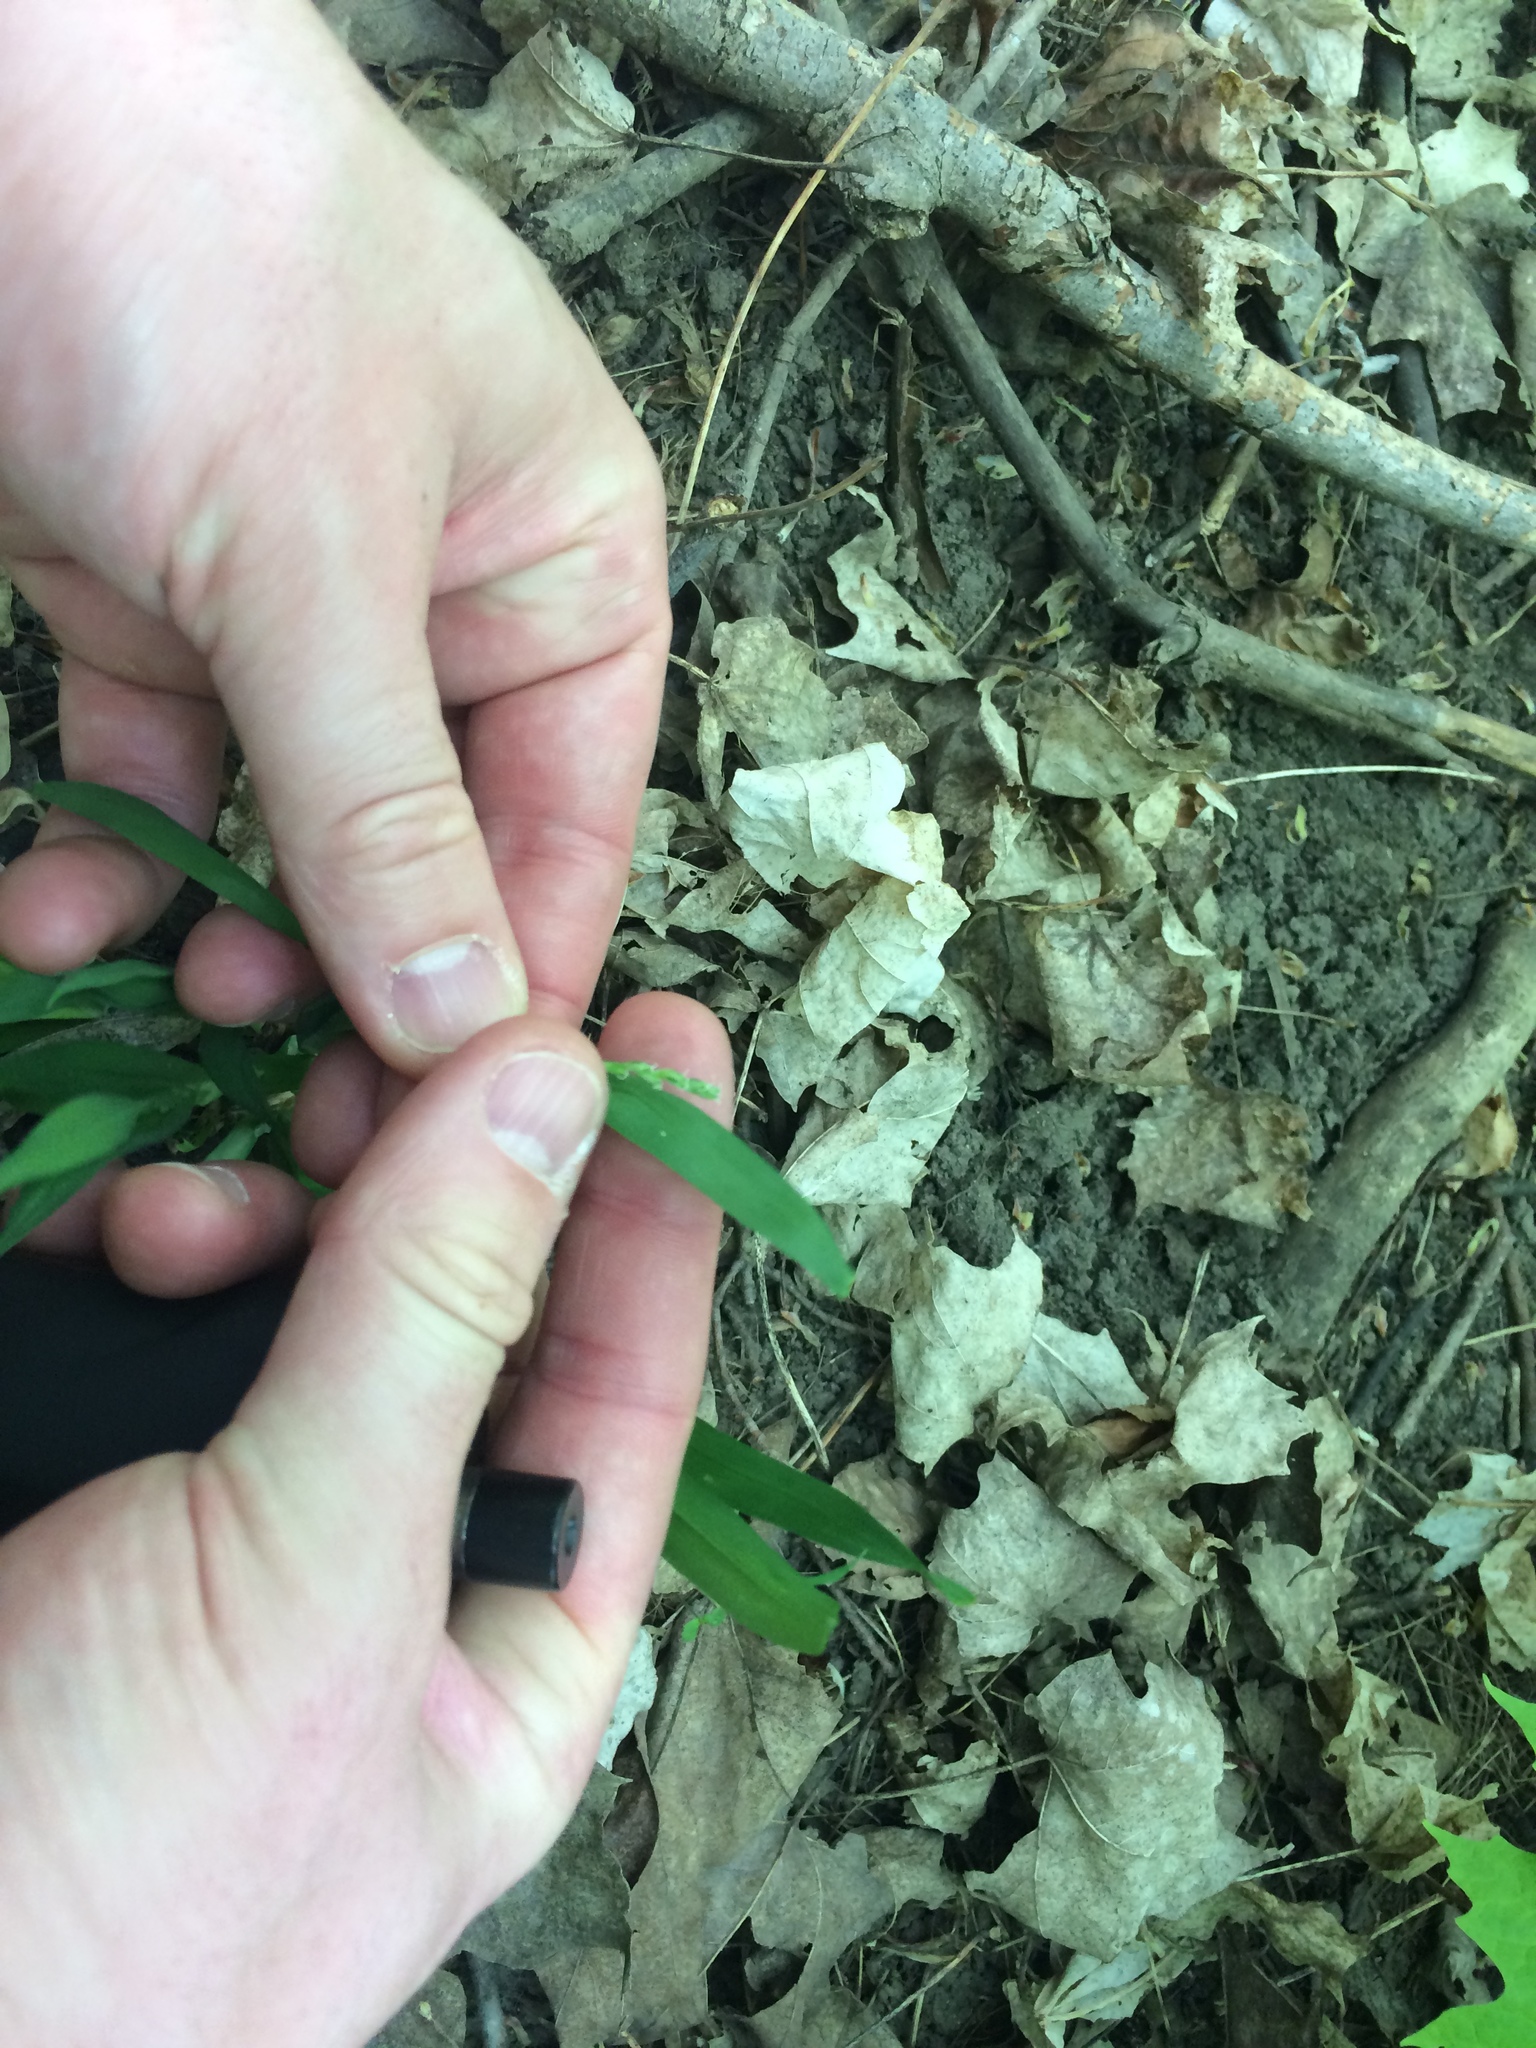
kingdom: Plantae
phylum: Tracheophyta
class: Liliopsida
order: Poales
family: Cyperaceae
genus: Carex
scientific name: Carex albursina
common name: Blunt-scale wood sedge
